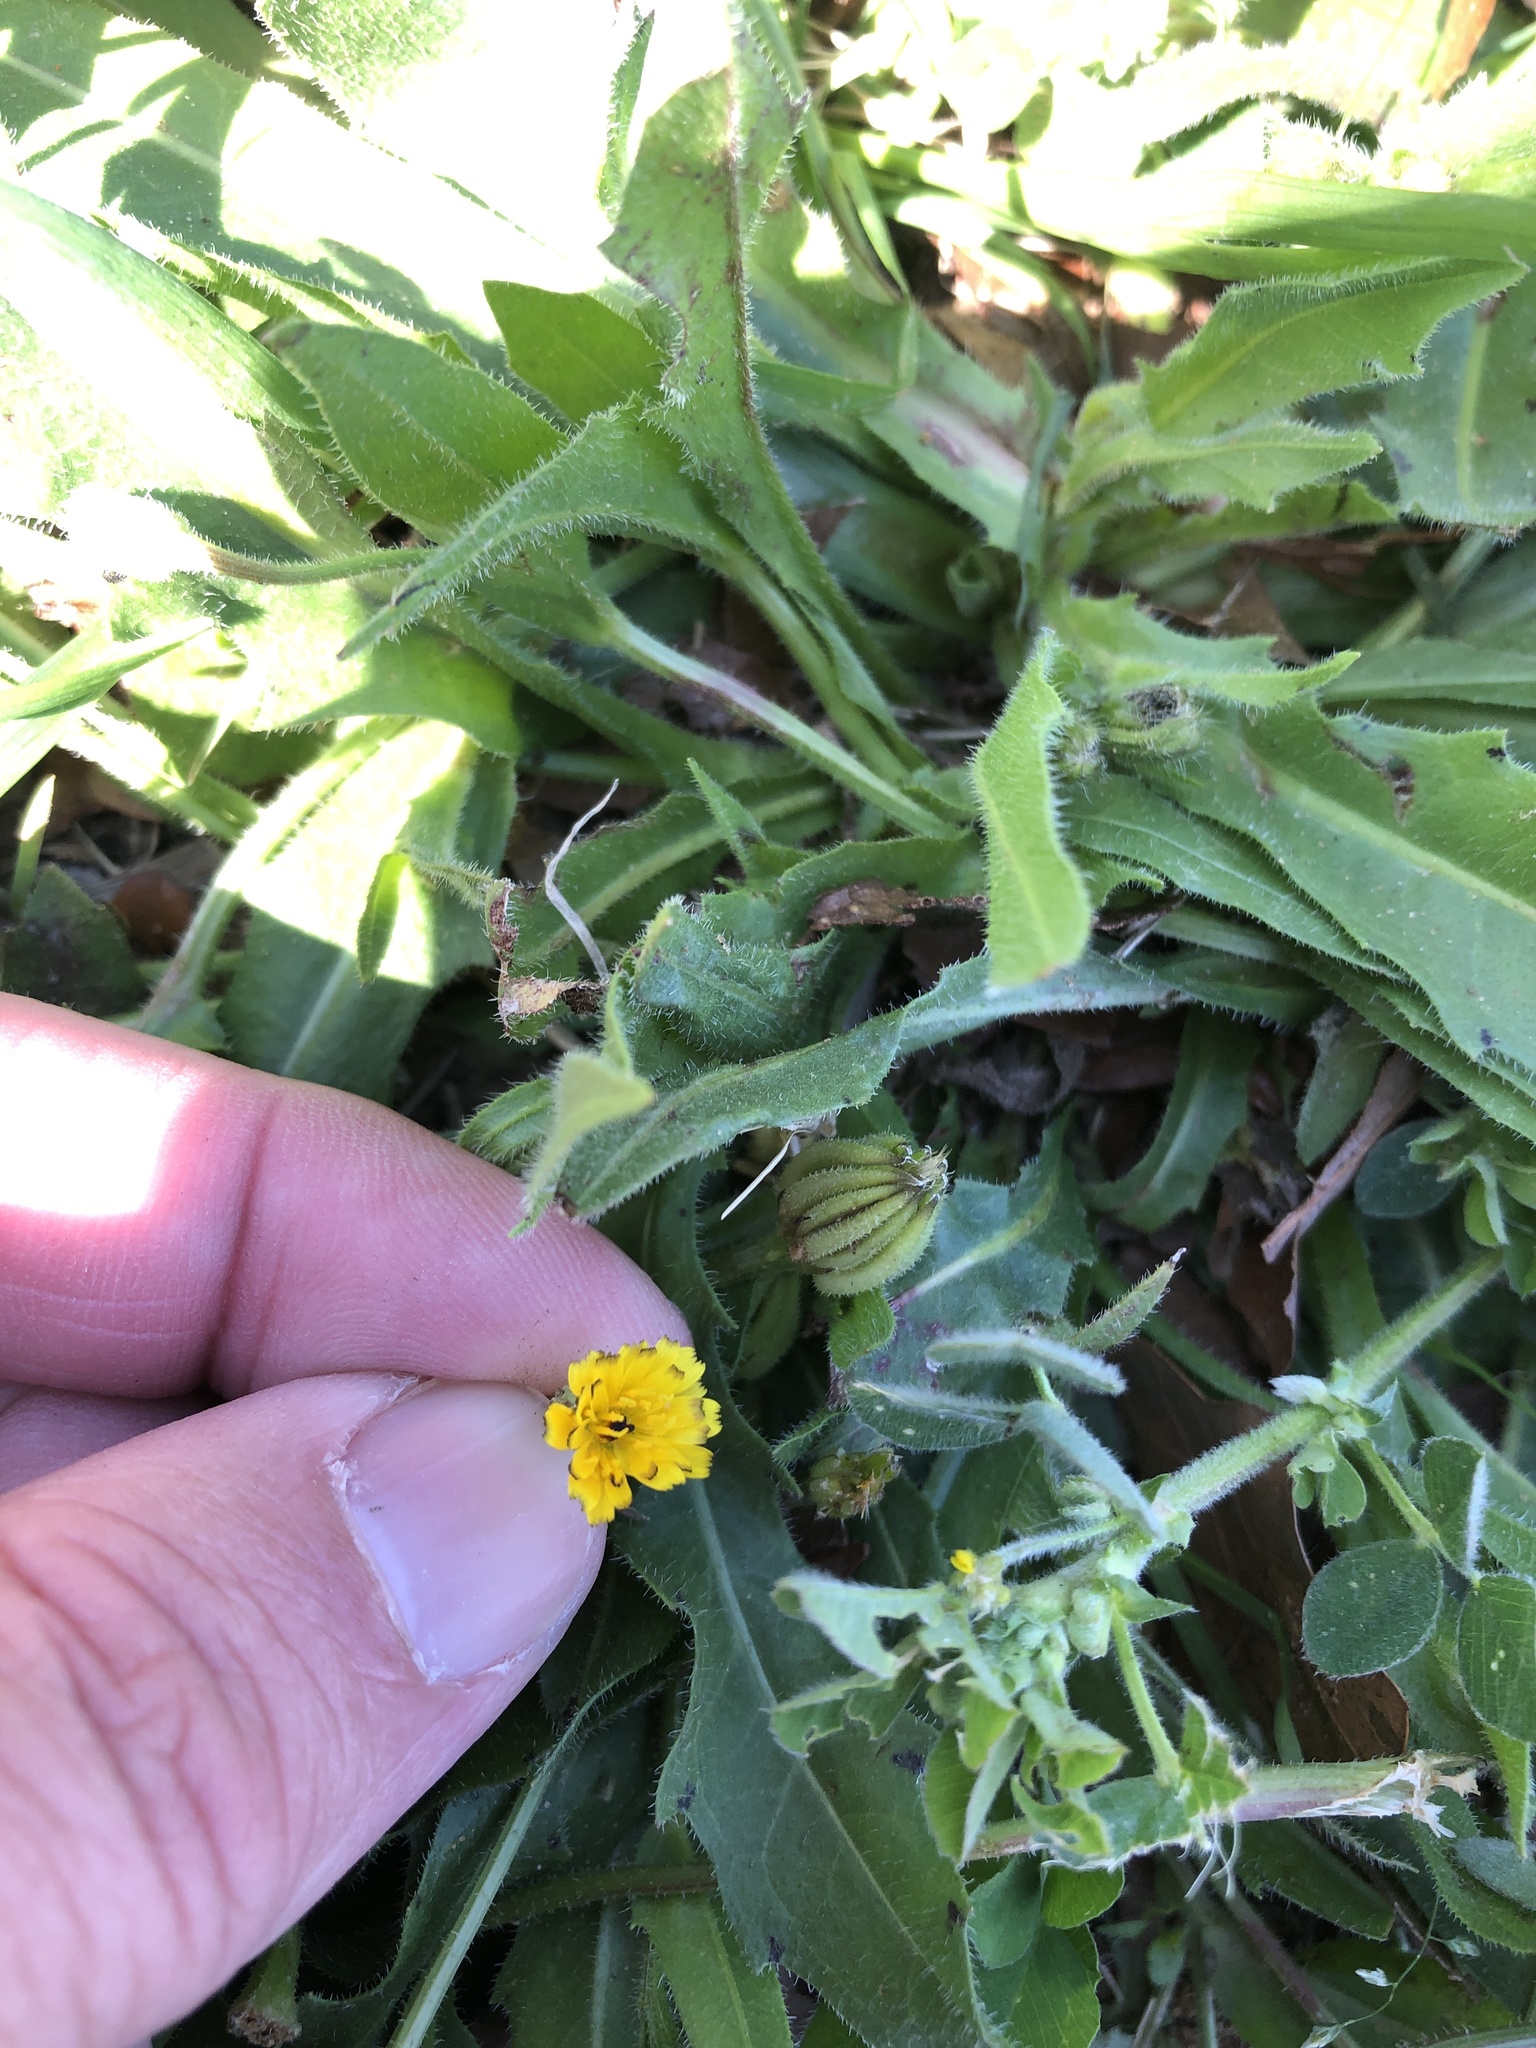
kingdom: Plantae
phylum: Tracheophyta
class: Magnoliopsida
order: Asterales
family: Asteraceae
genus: Hedypnois
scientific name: Hedypnois rhagadioloides
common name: Cretan weed
